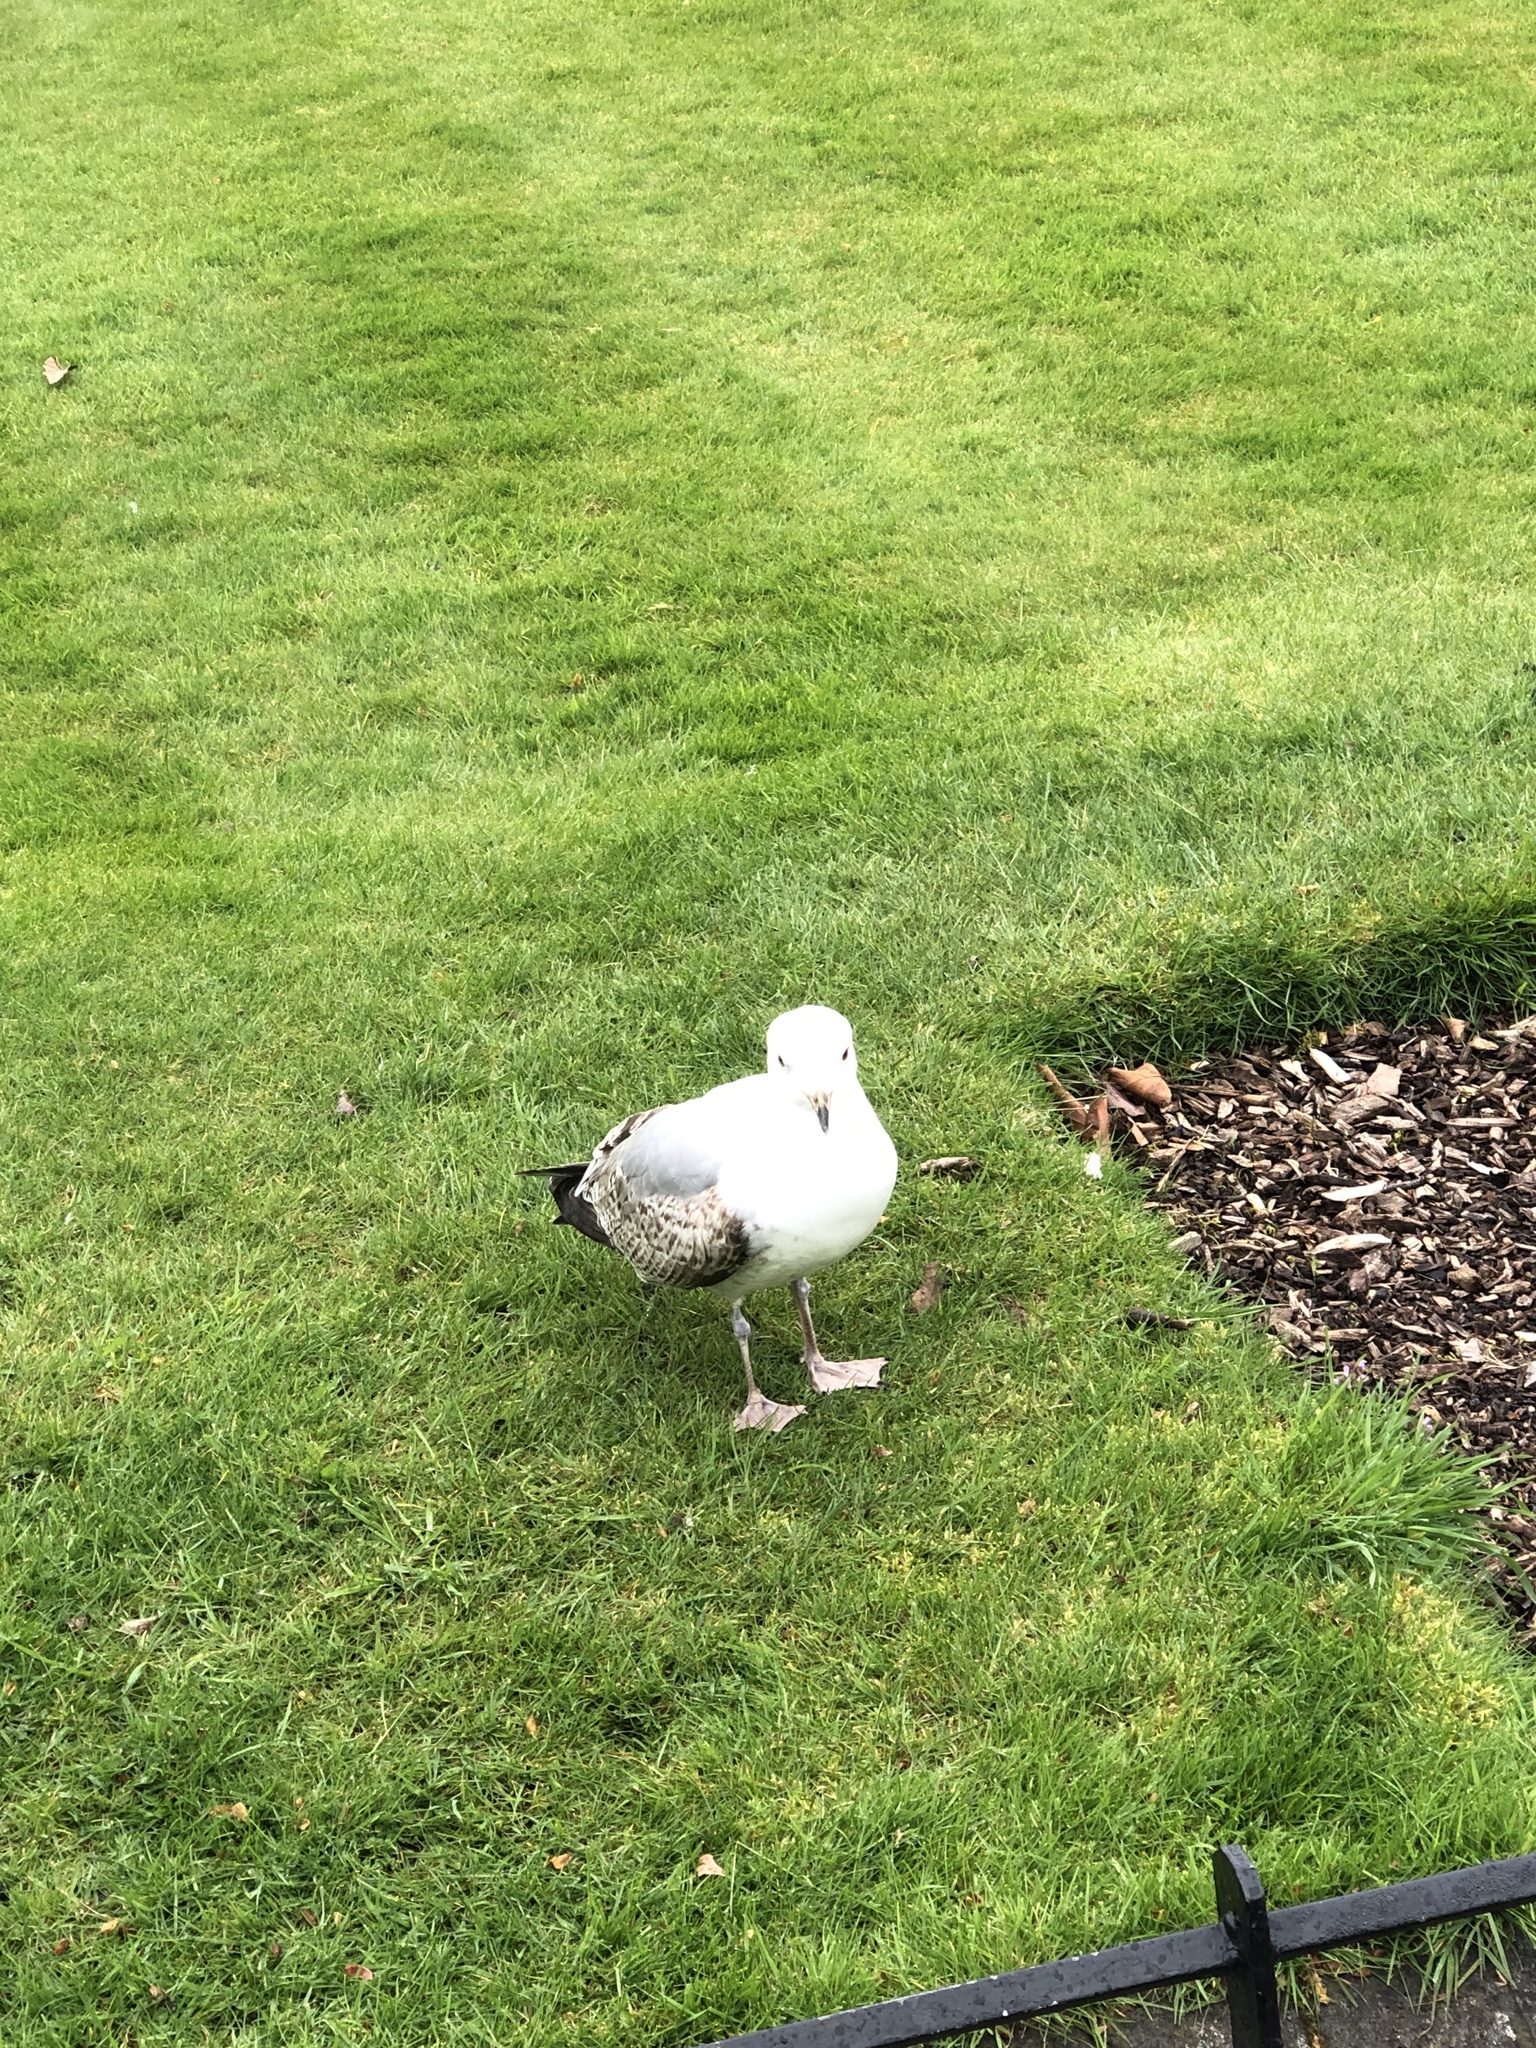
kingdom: Animalia
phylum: Chordata
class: Aves
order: Charadriiformes
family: Laridae
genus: Larus
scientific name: Larus argentatus
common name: Herring gull
